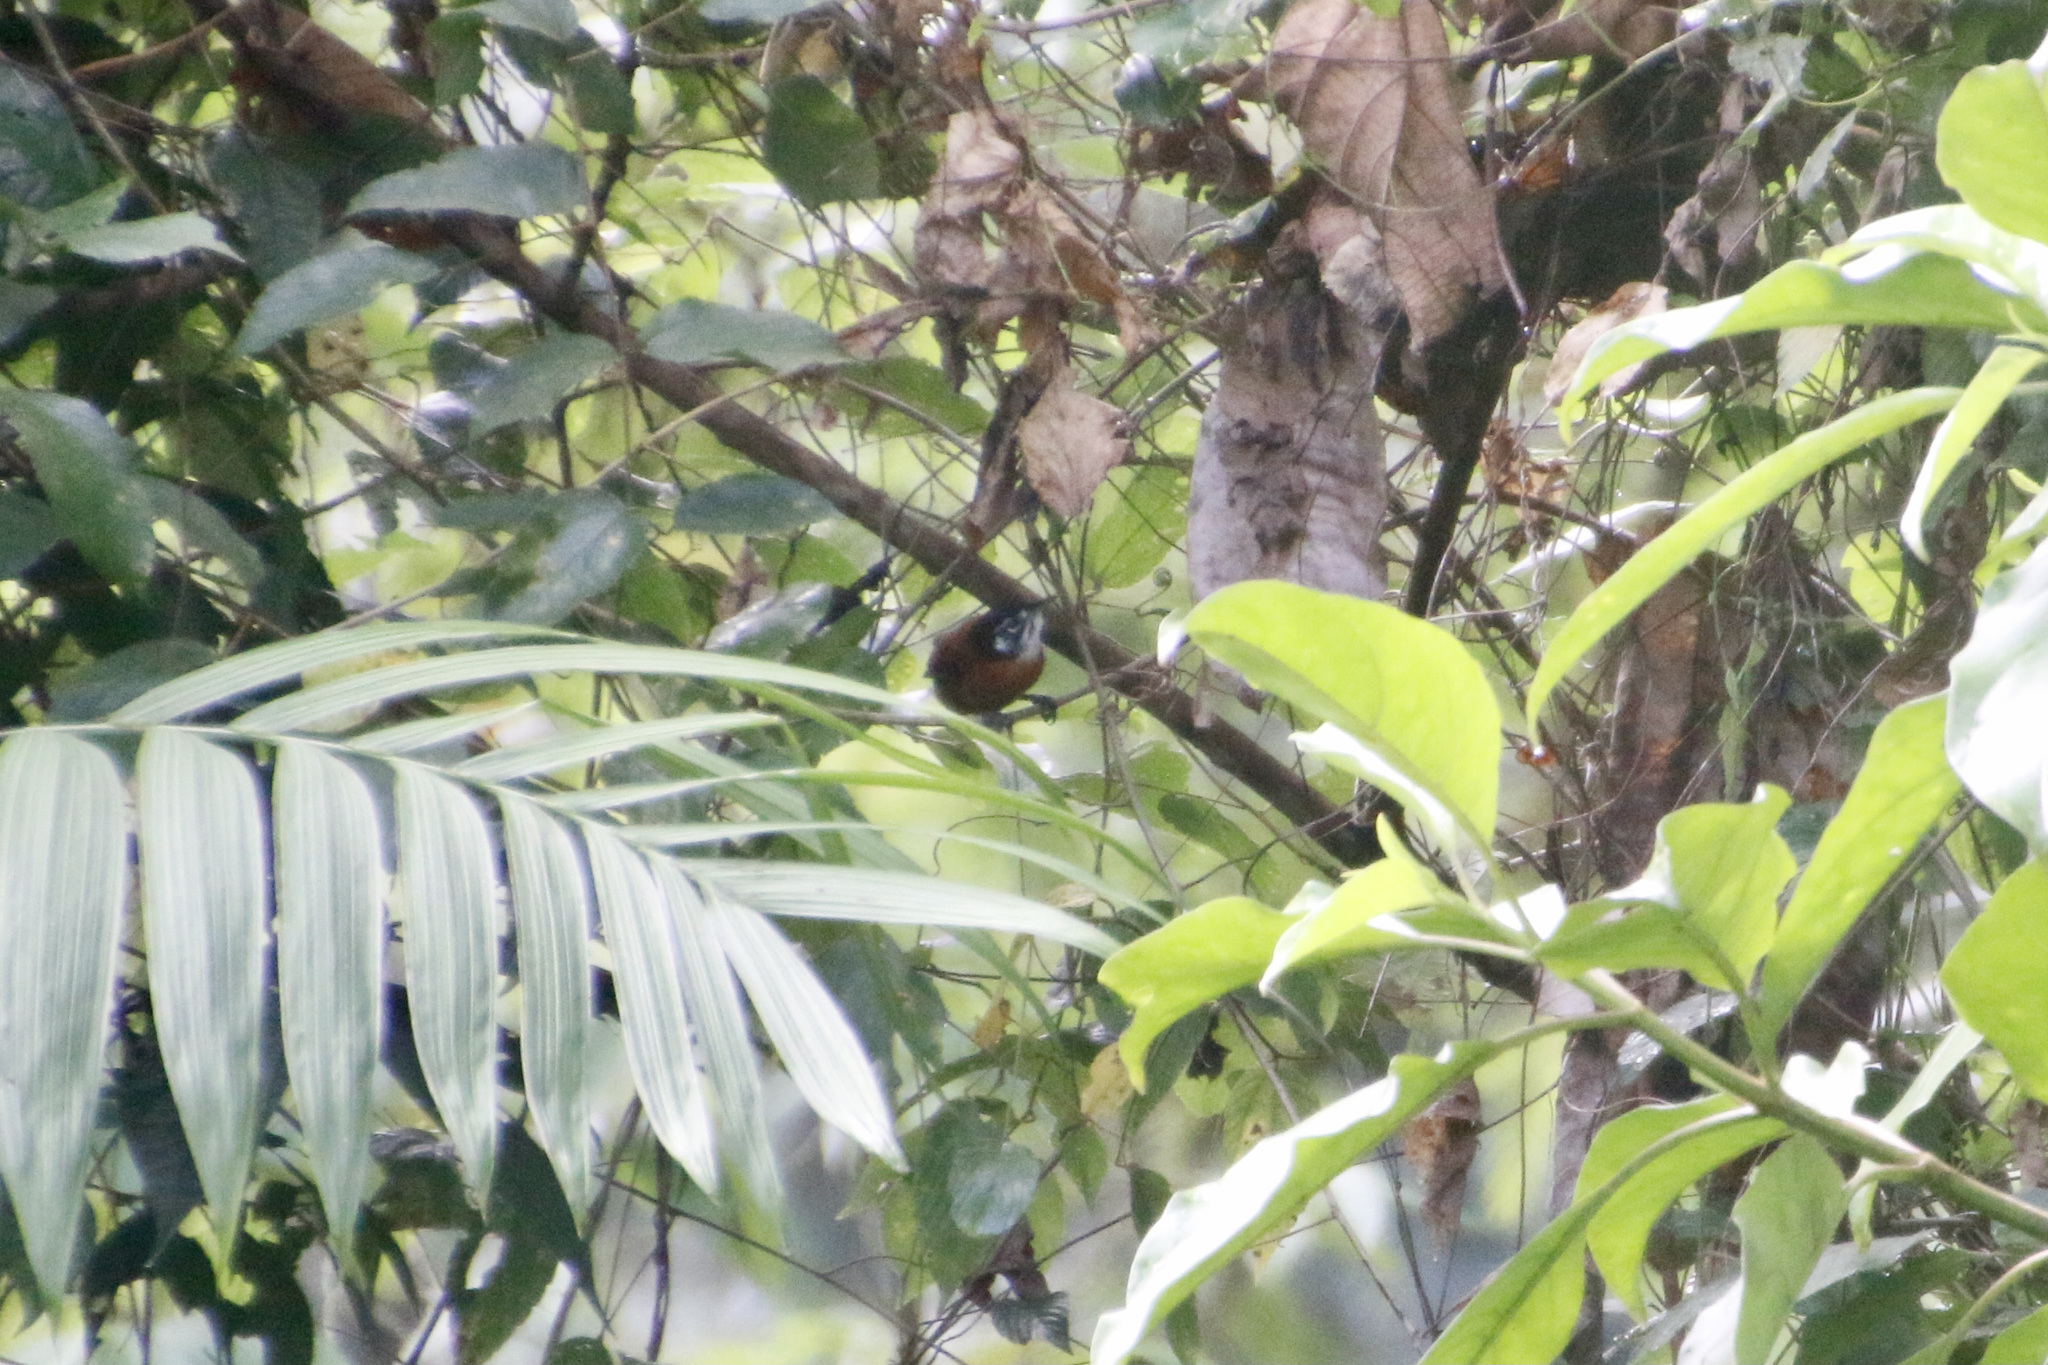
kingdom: Animalia
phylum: Chordata
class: Aves
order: Passeriformes
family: Troglodytidae
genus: Cantorchilus
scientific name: Cantorchilus nigricapillus
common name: Bay wren
